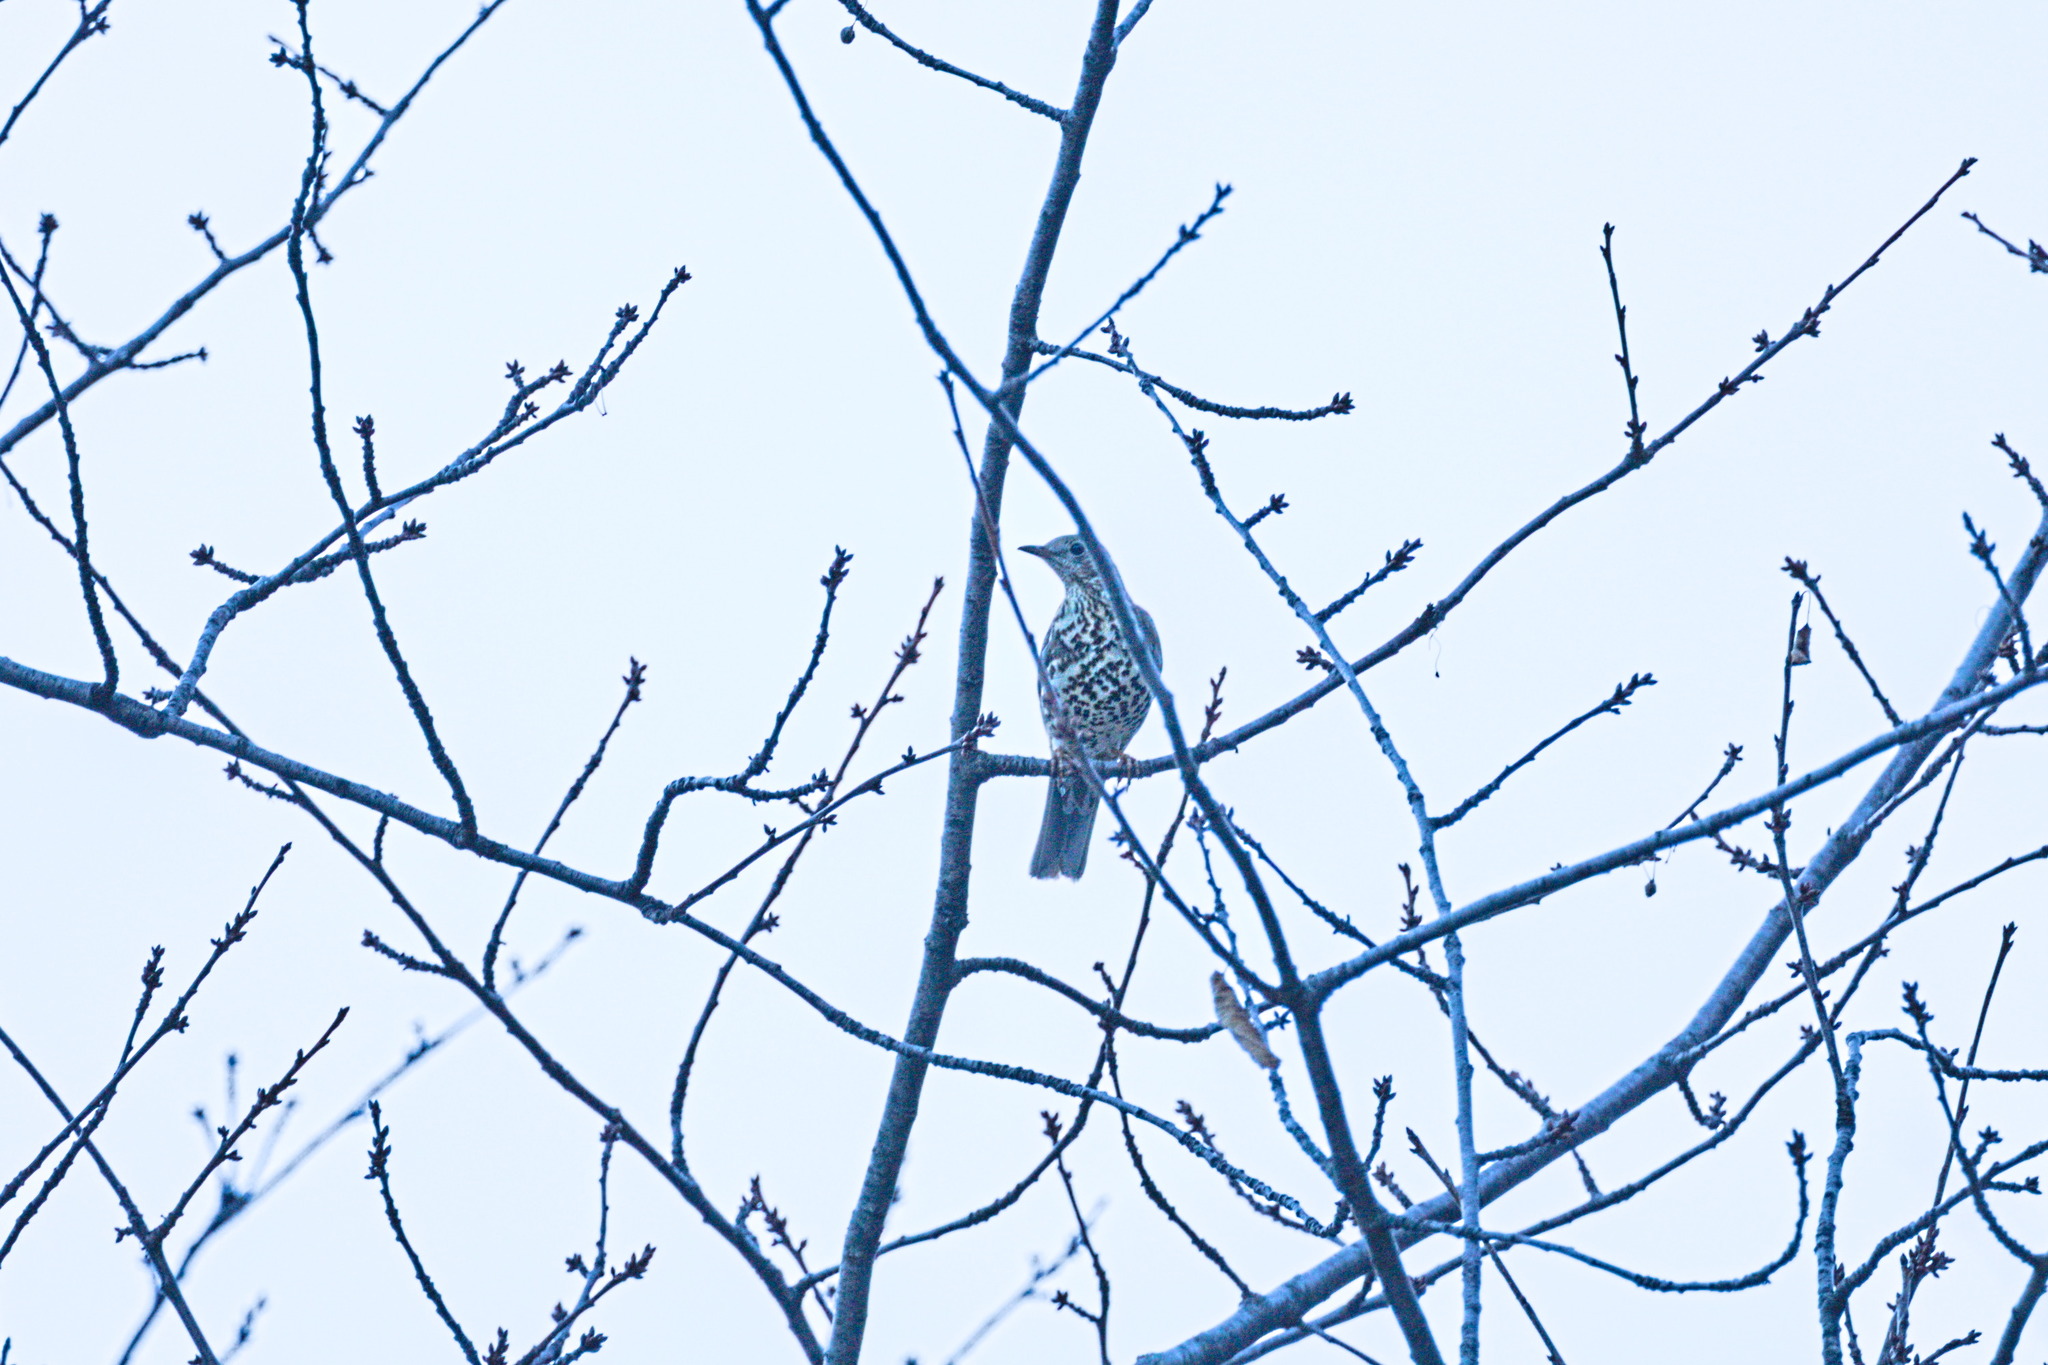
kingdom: Animalia
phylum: Chordata
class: Aves
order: Passeriformes
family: Turdidae
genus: Turdus
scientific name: Turdus viscivorus
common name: Mistle thrush
